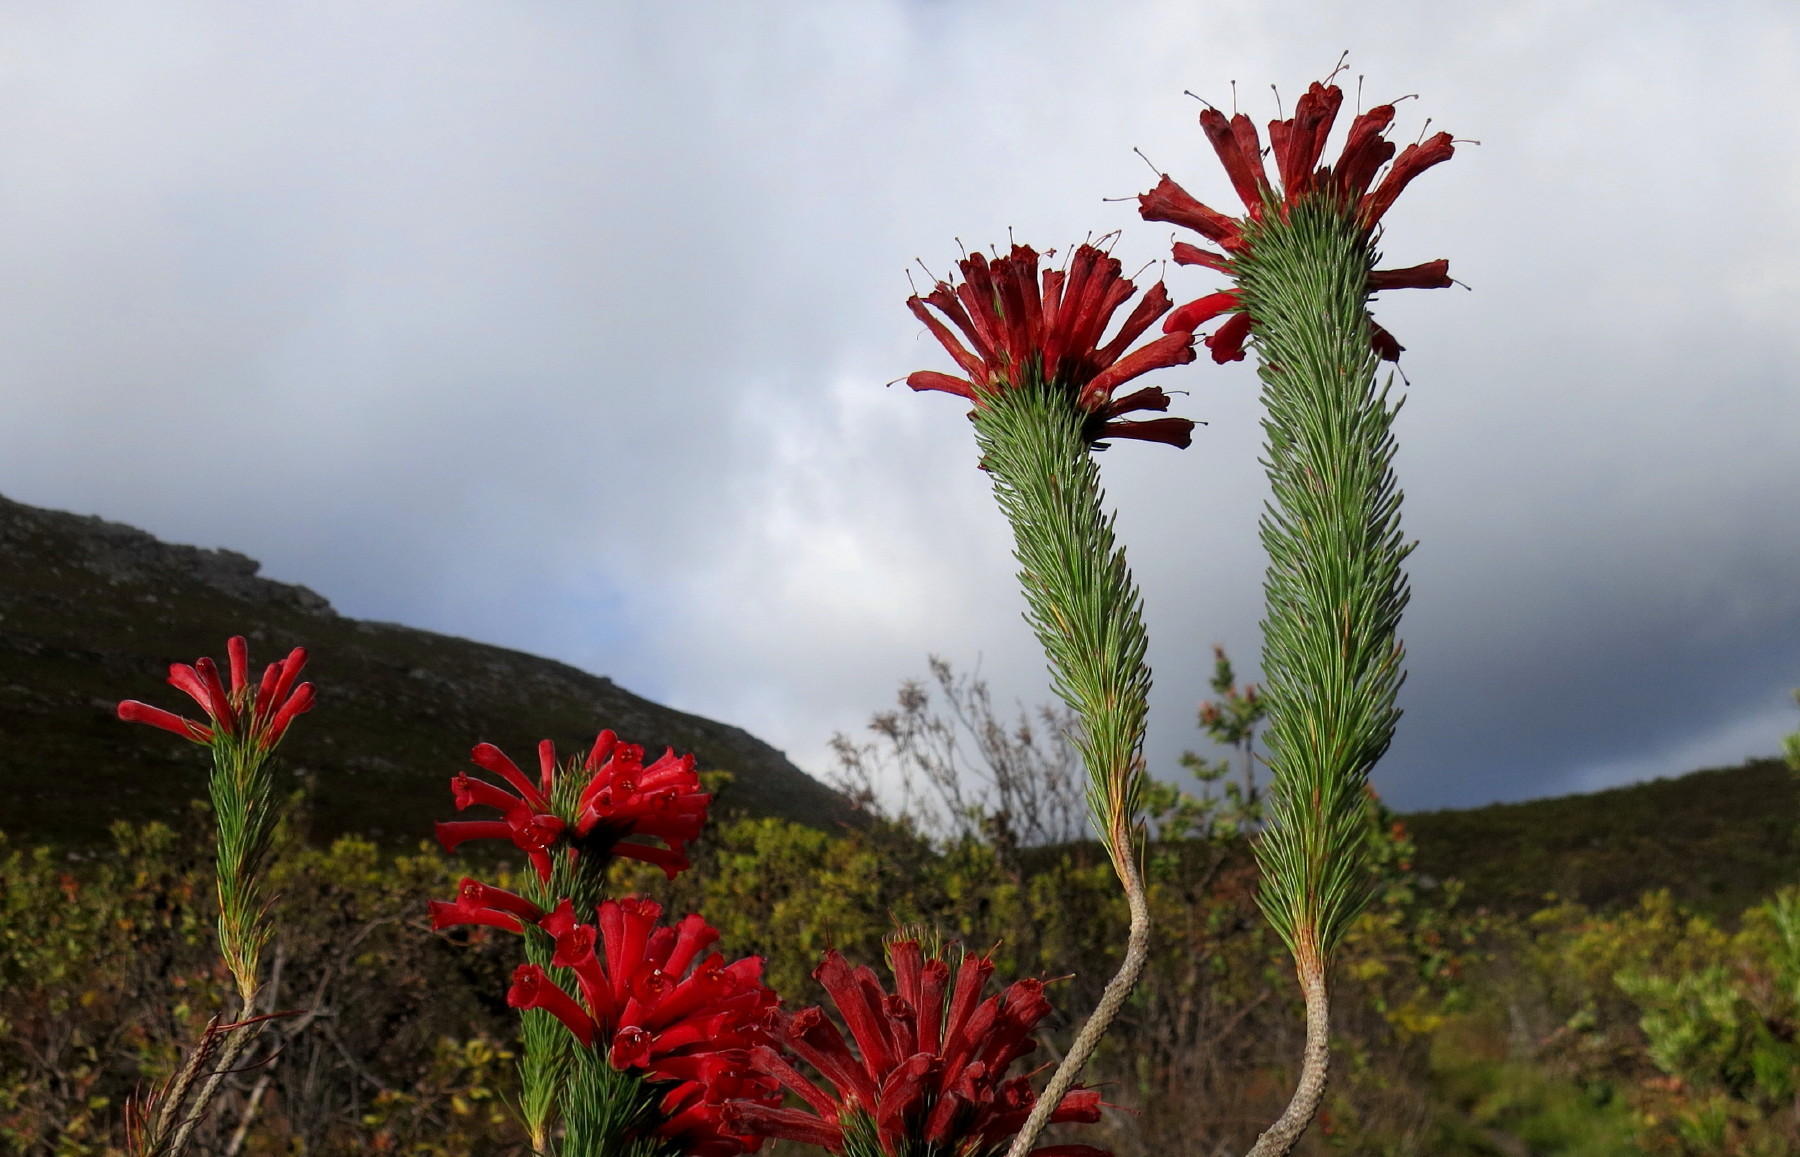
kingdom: Plantae
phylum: Tracheophyta
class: Magnoliopsida
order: Ericales
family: Ericaceae
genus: Erica
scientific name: Erica vestita
